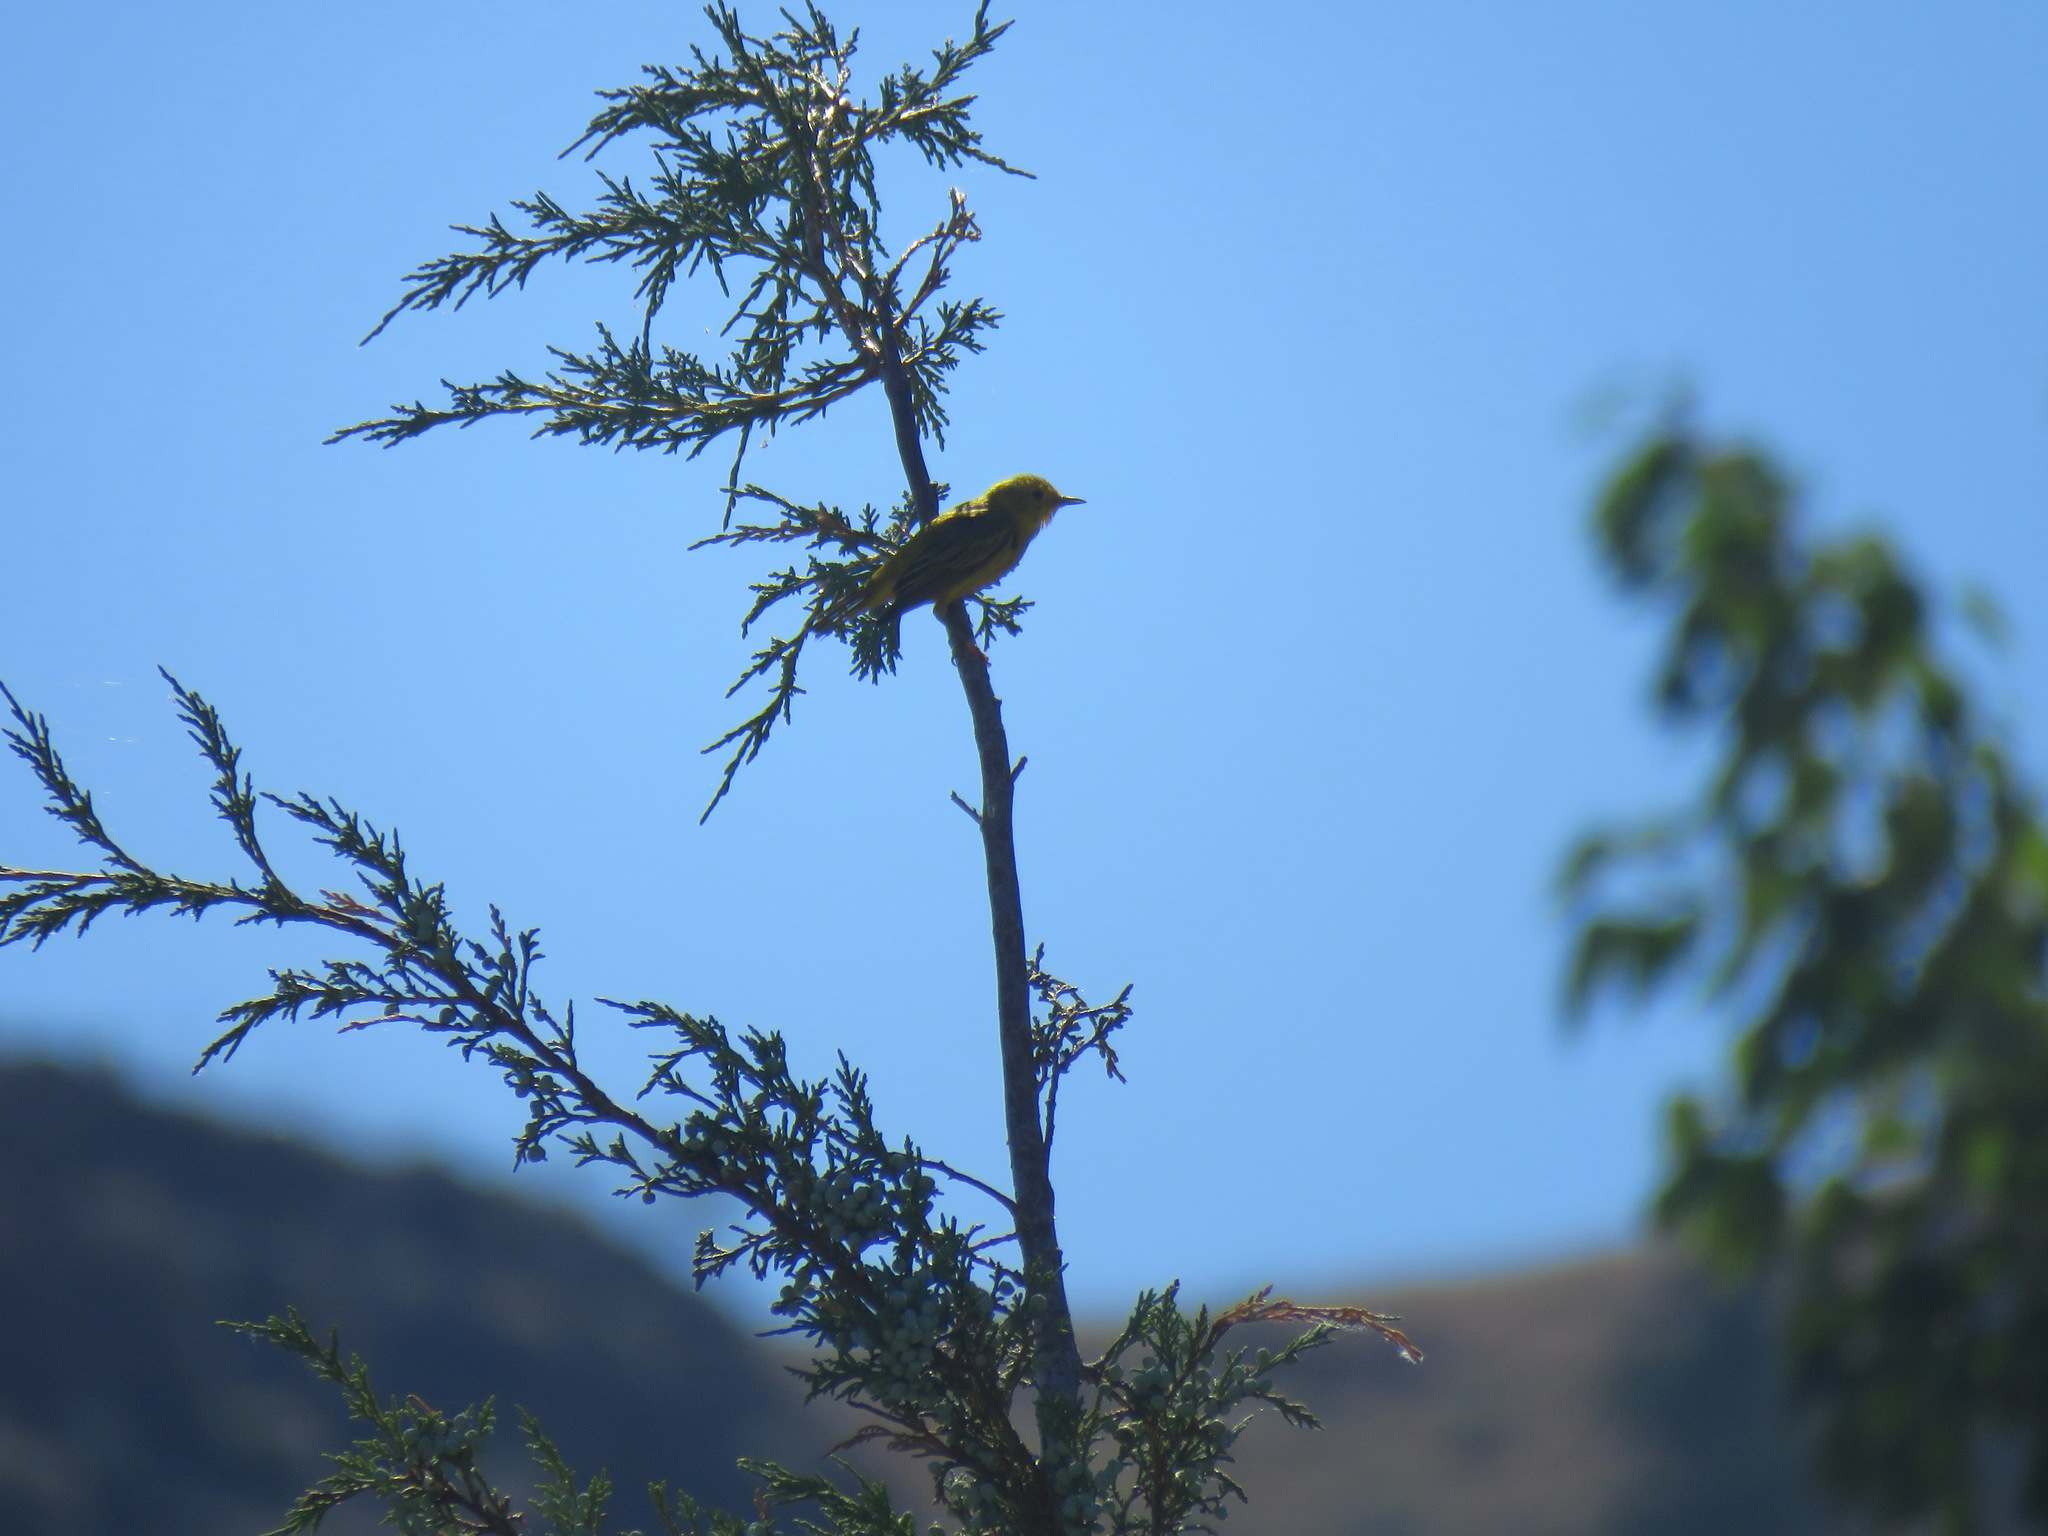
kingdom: Animalia
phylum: Chordata
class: Aves
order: Passeriformes
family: Parulidae
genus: Setophaga
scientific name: Setophaga petechia
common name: Yellow warbler
